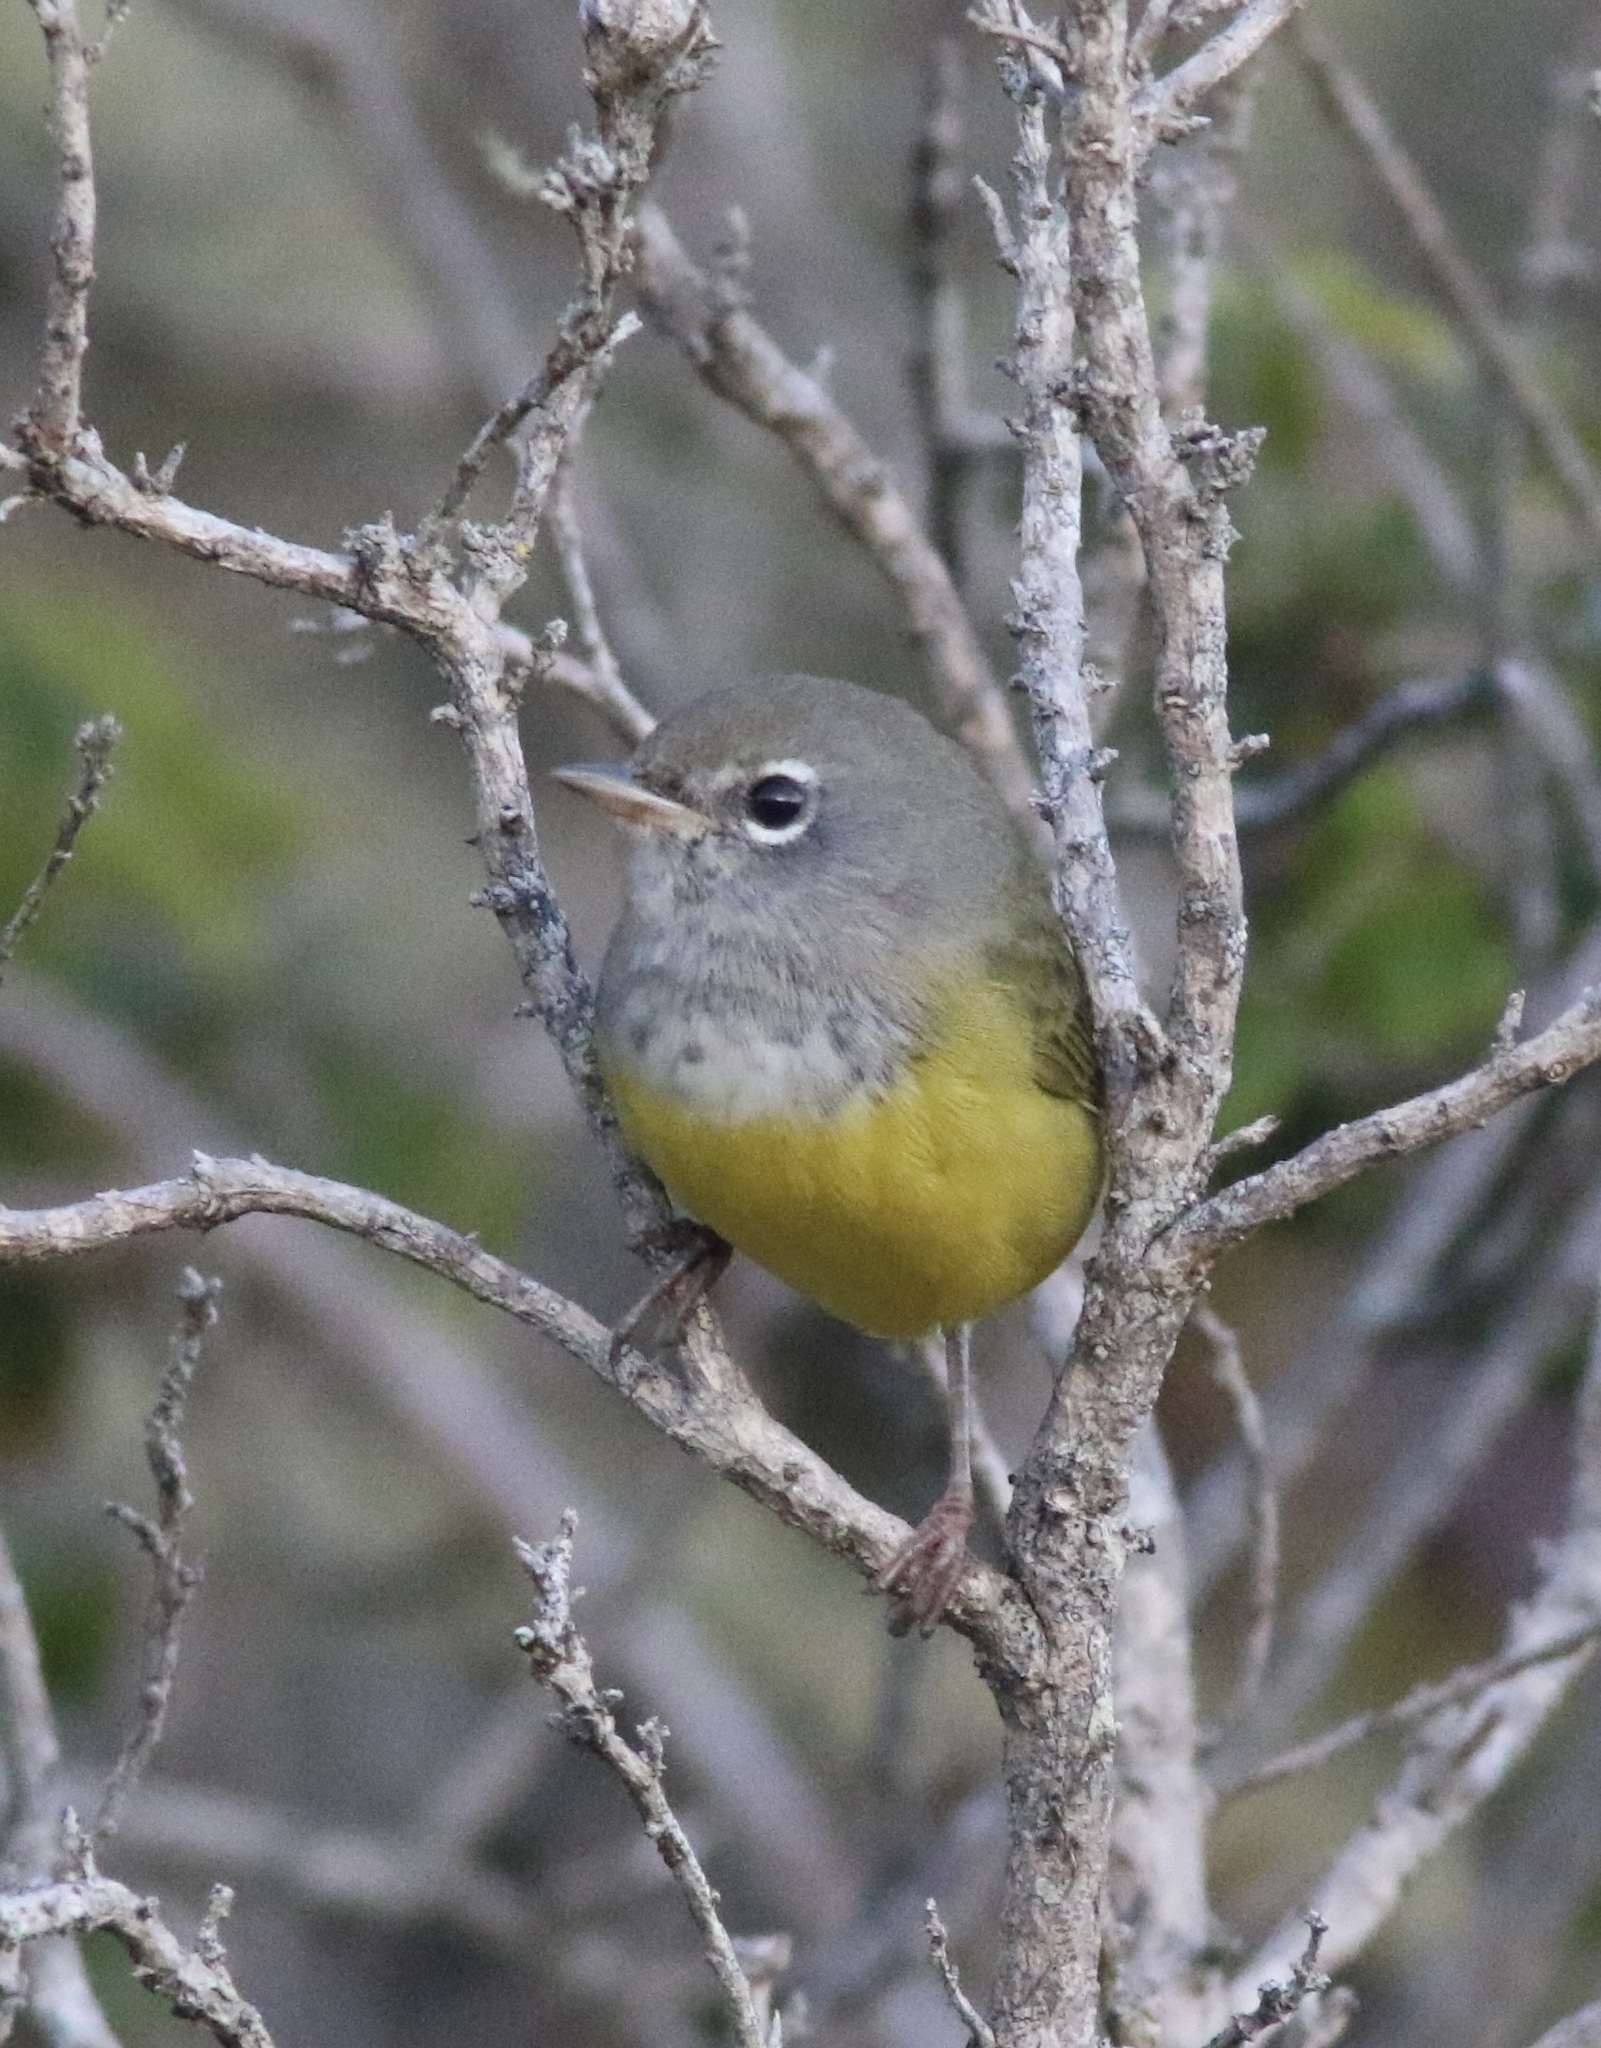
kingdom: Animalia
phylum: Chordata
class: Aves
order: Passeriformes
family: Parulidae
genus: Geothlypis
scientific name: Geothlypis tolmiei
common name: Macgillivray's warbler
